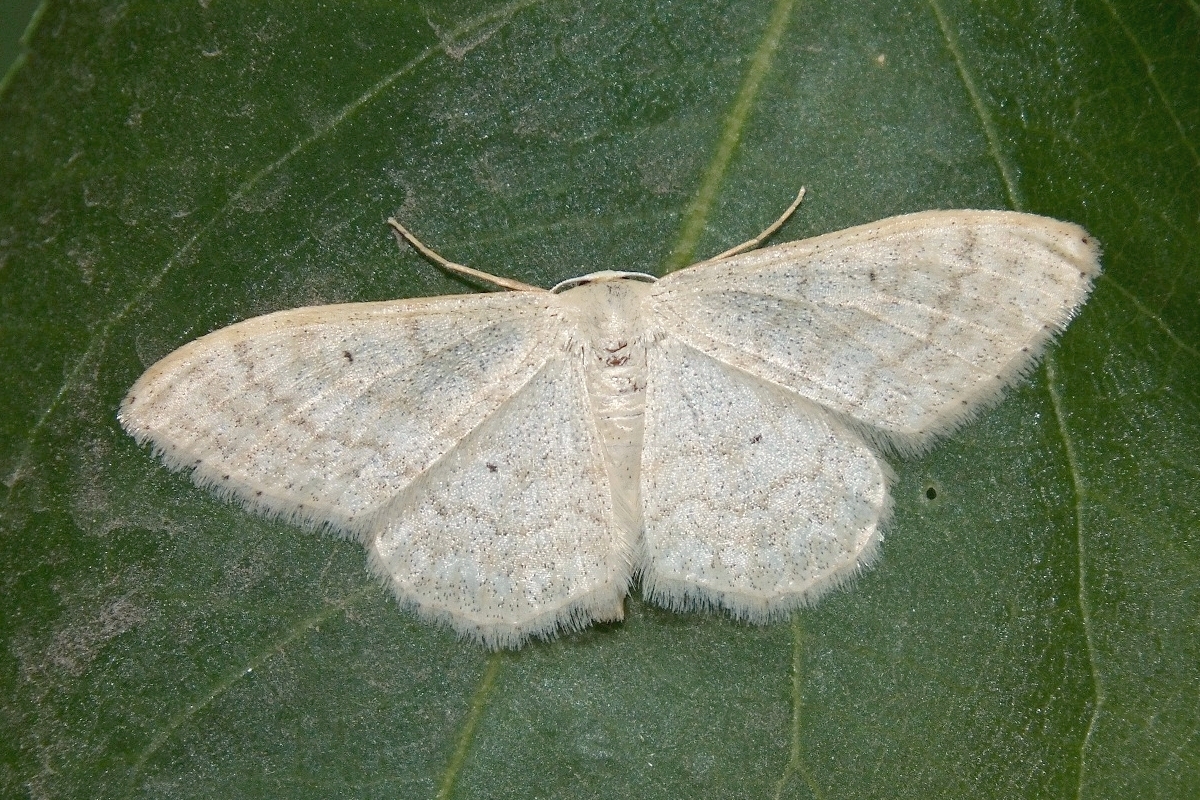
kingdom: Animalia
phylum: Arthropoda
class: Insecta
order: Lepidoptera
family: Geometridae
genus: Idaea
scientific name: Idaea maritimaria
